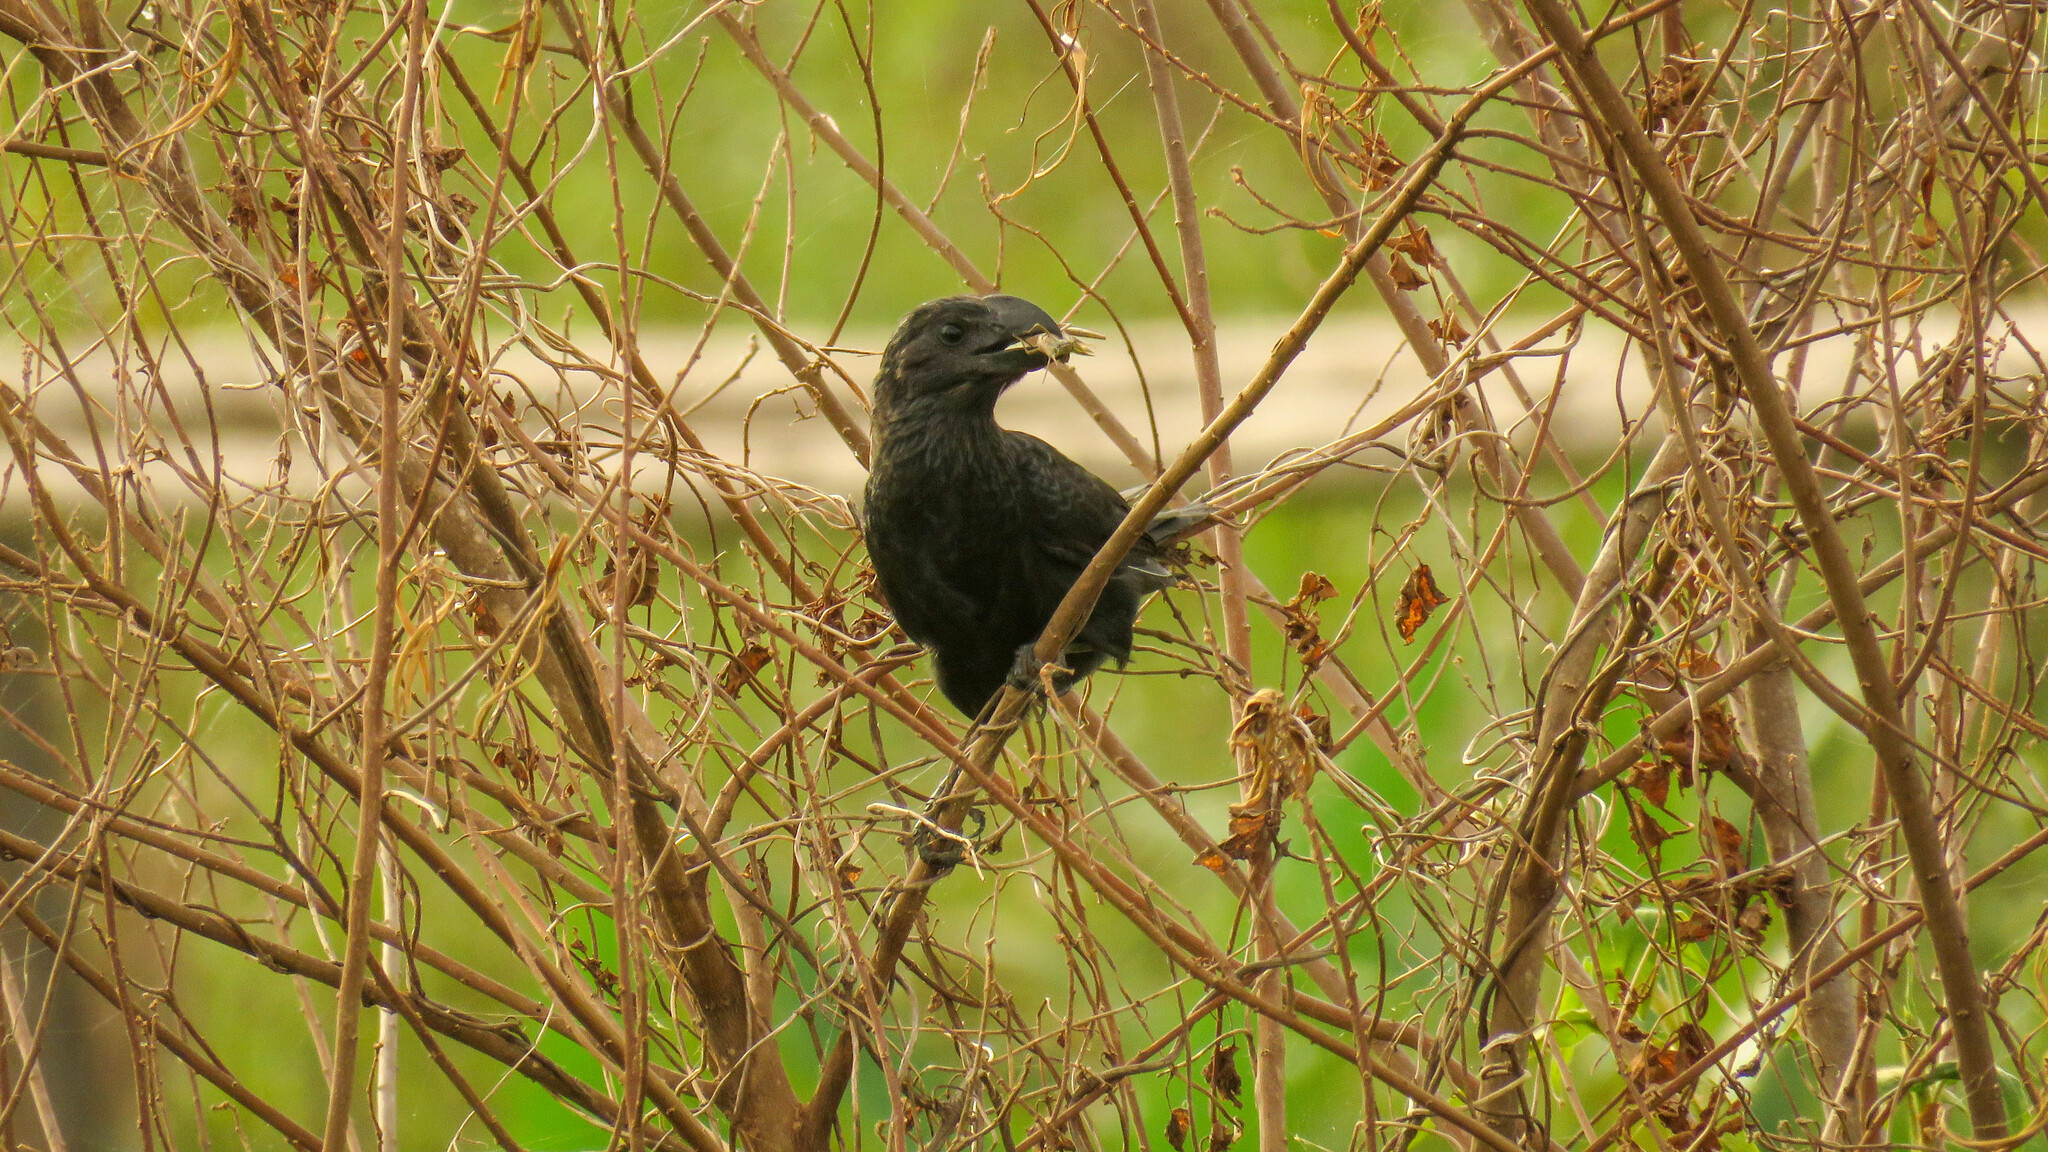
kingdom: Animalia
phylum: Chordata
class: Aves
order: Cuculiformes
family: Cuculidae
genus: Crotophaga
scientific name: Crotophaga ani
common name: Smooth-billed ani
